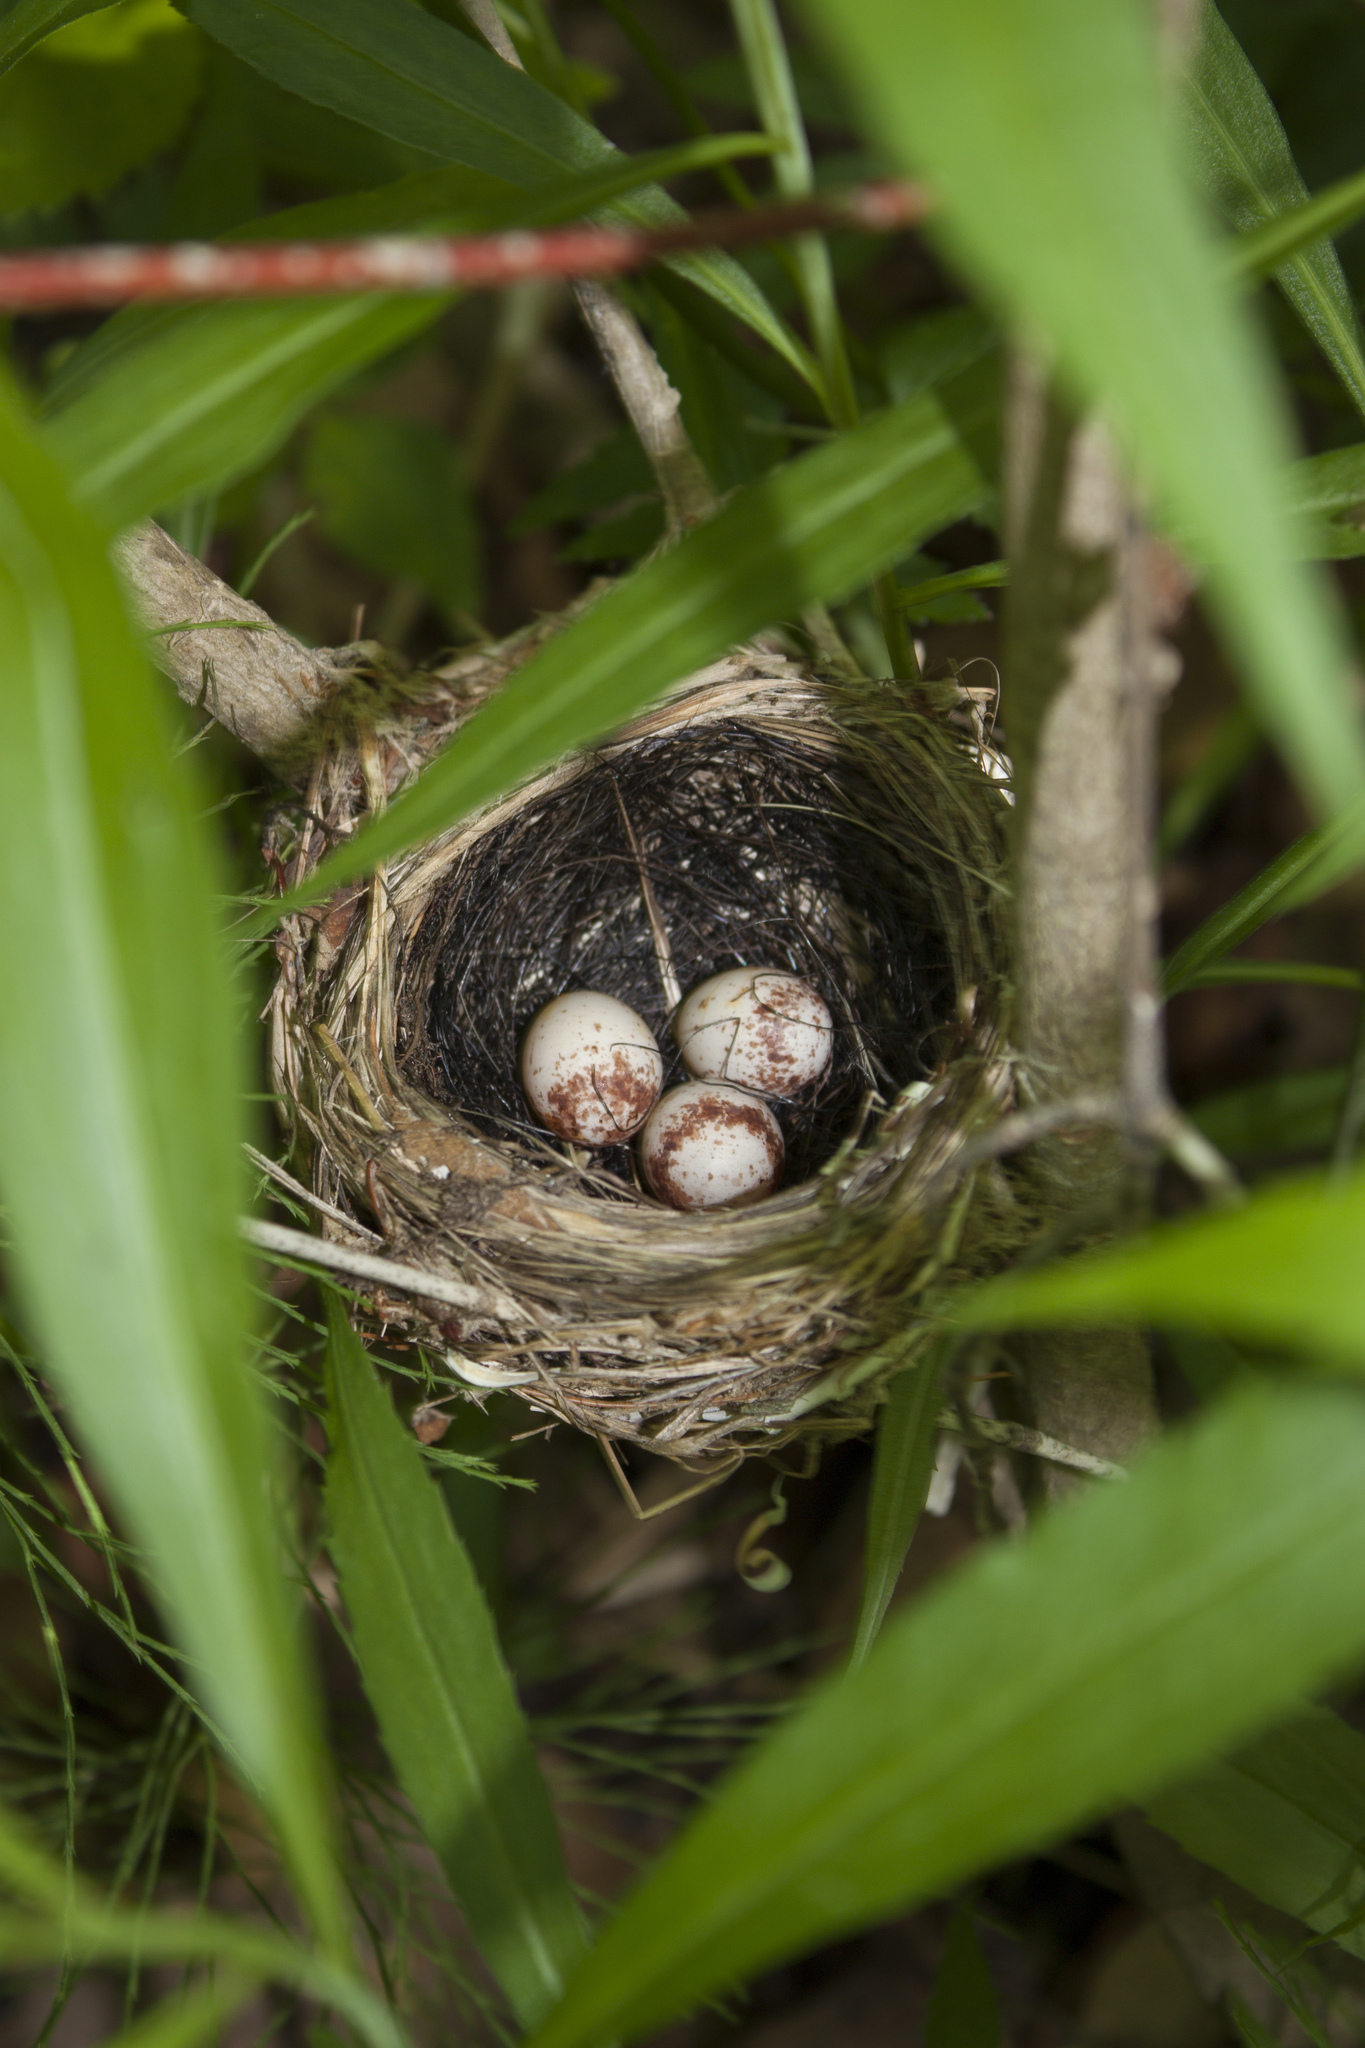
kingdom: Animalia
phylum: Chordata
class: Aves
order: Passeriformes
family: Parulidae
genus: Setophaga
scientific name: Setophaga caerulescens
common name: Black-throated blue warbler
